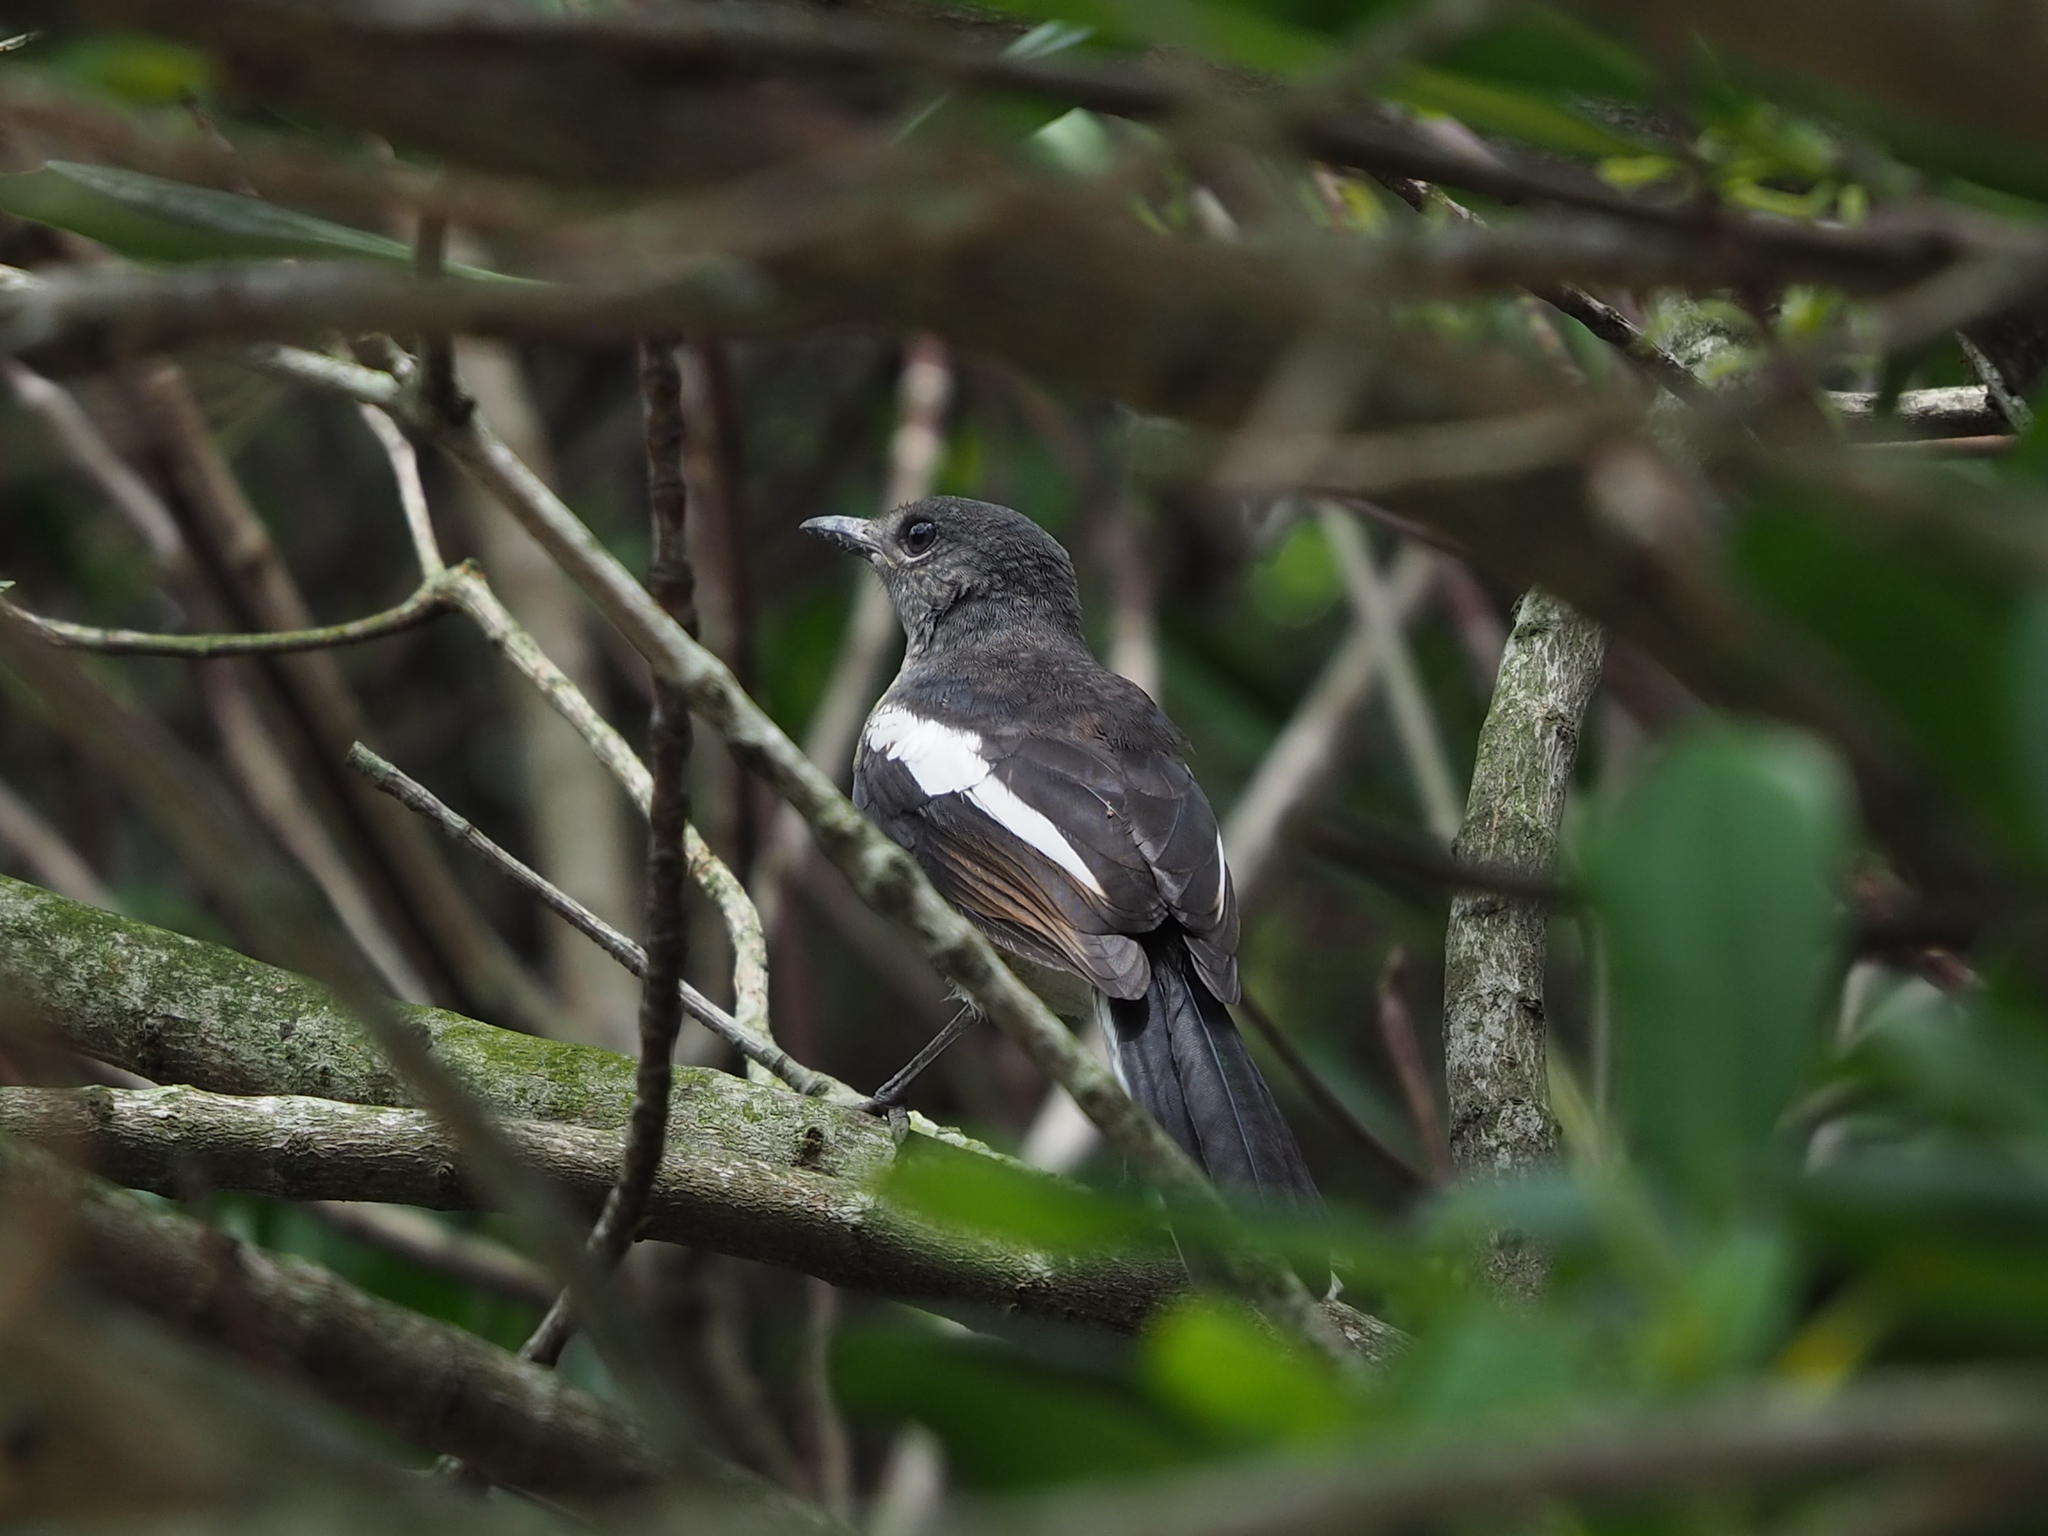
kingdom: Animalia
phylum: Chordata
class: Aves
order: Passeriformes
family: Muscicapidae
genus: Copsychus
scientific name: Copsychus saularis
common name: Oriental magpie-robin
